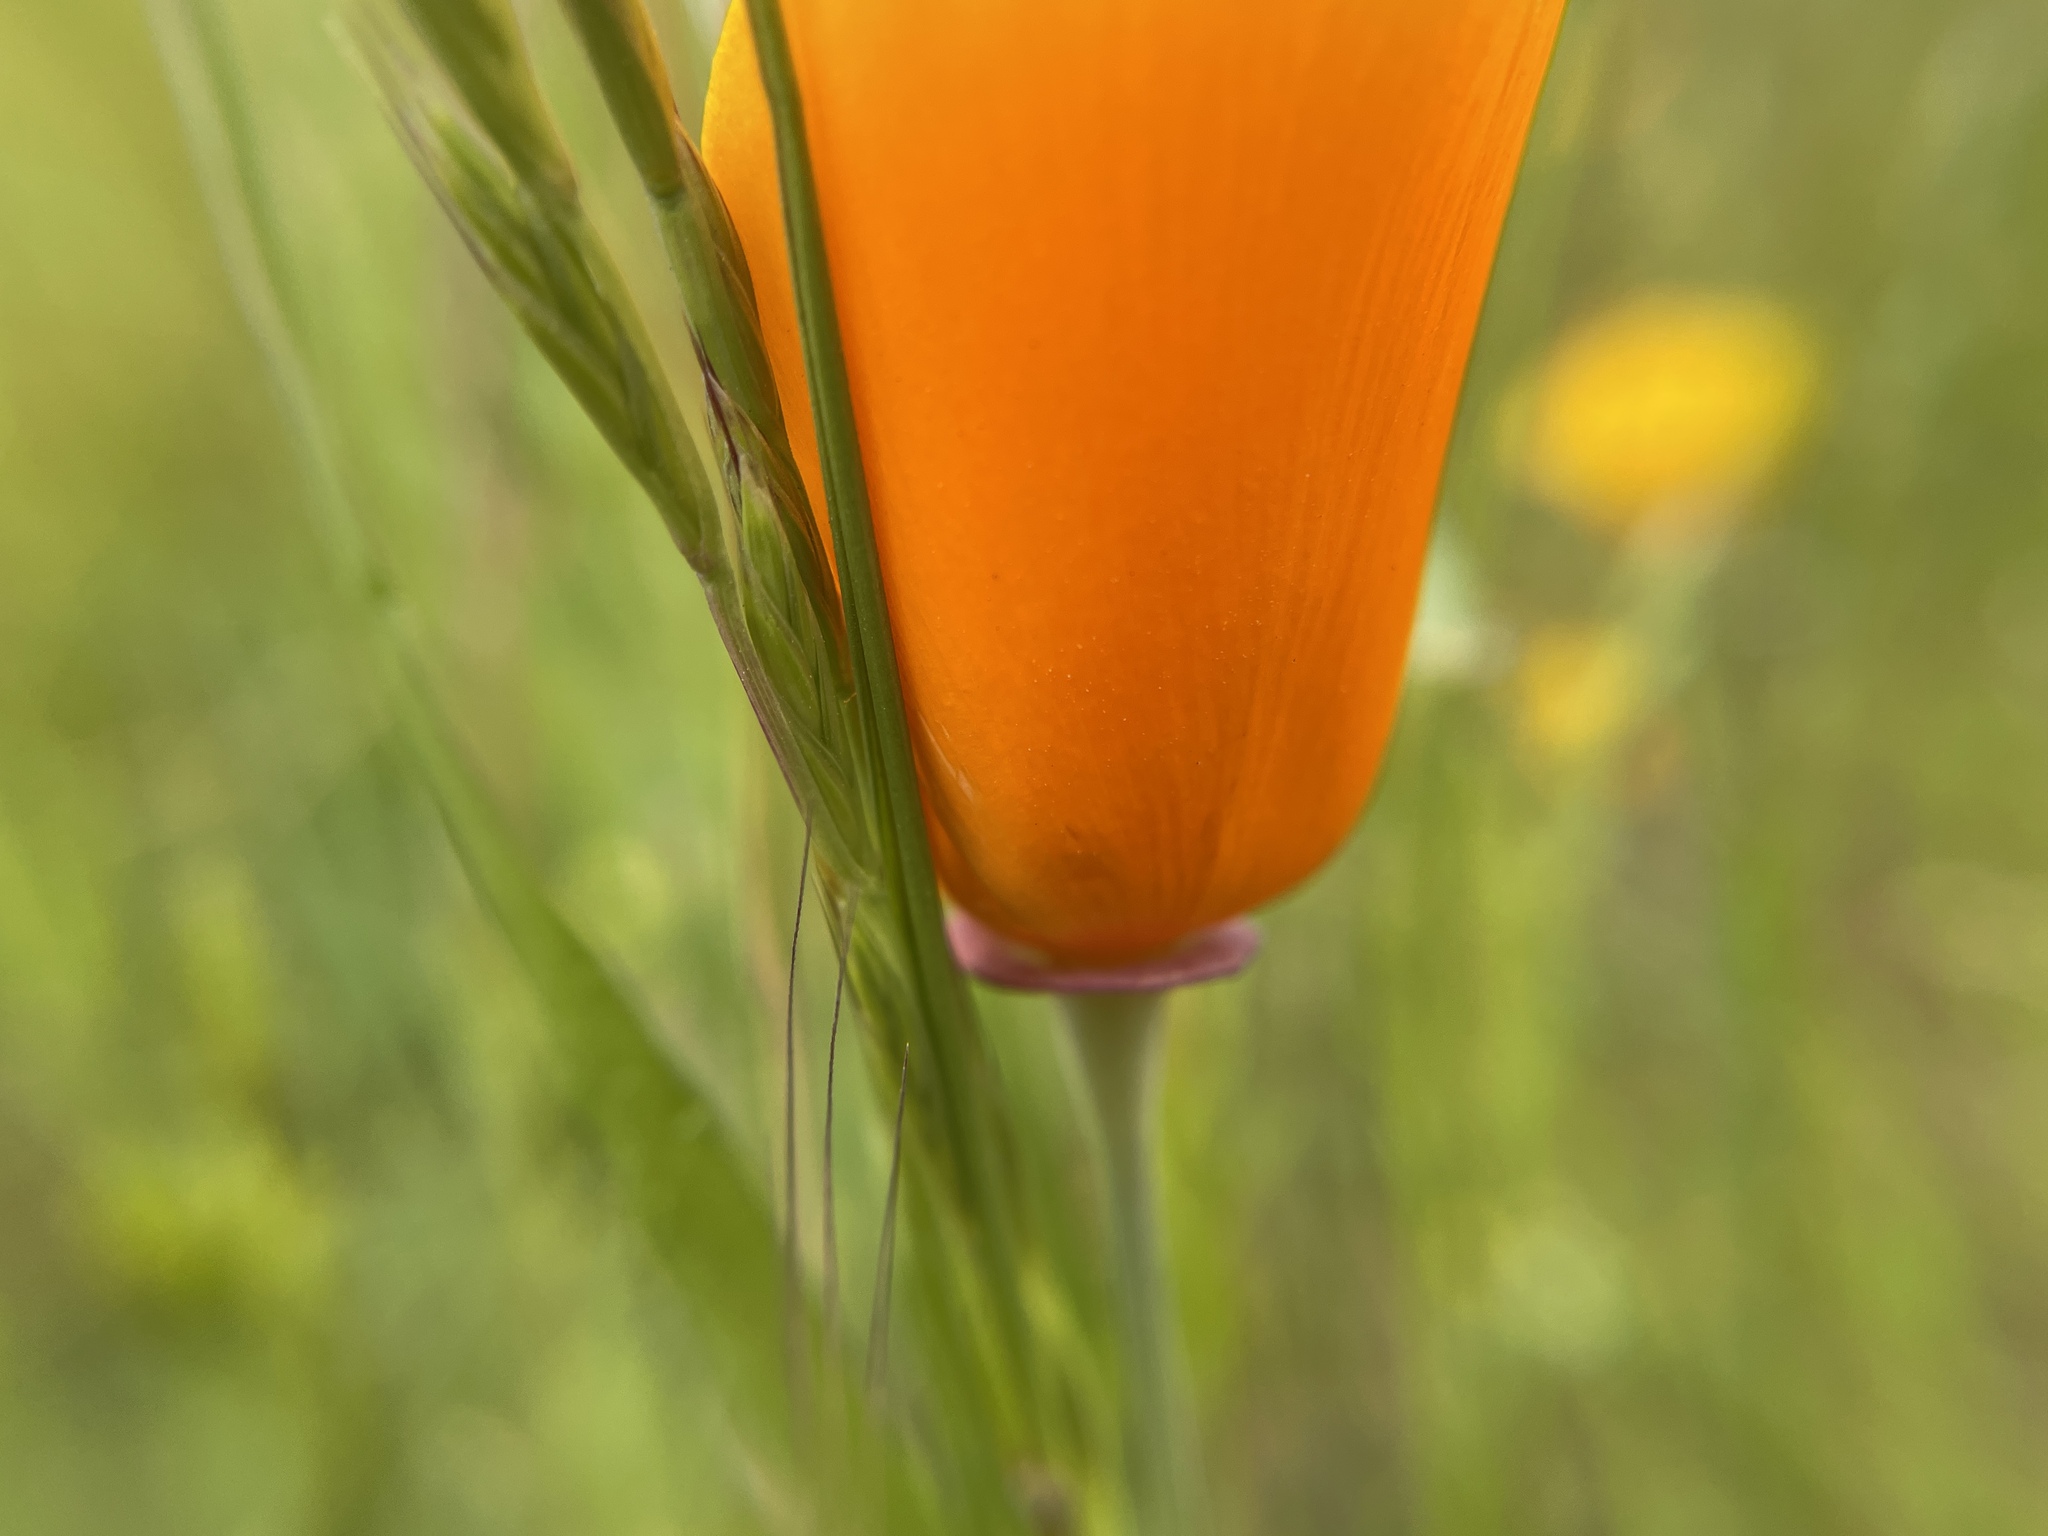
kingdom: Plantae
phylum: Tracheophyta
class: Magnoliopsida
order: Ranunculales
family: Papaveraceae
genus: Eschscholzia
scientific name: Eschscholzia californica
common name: California poppy
